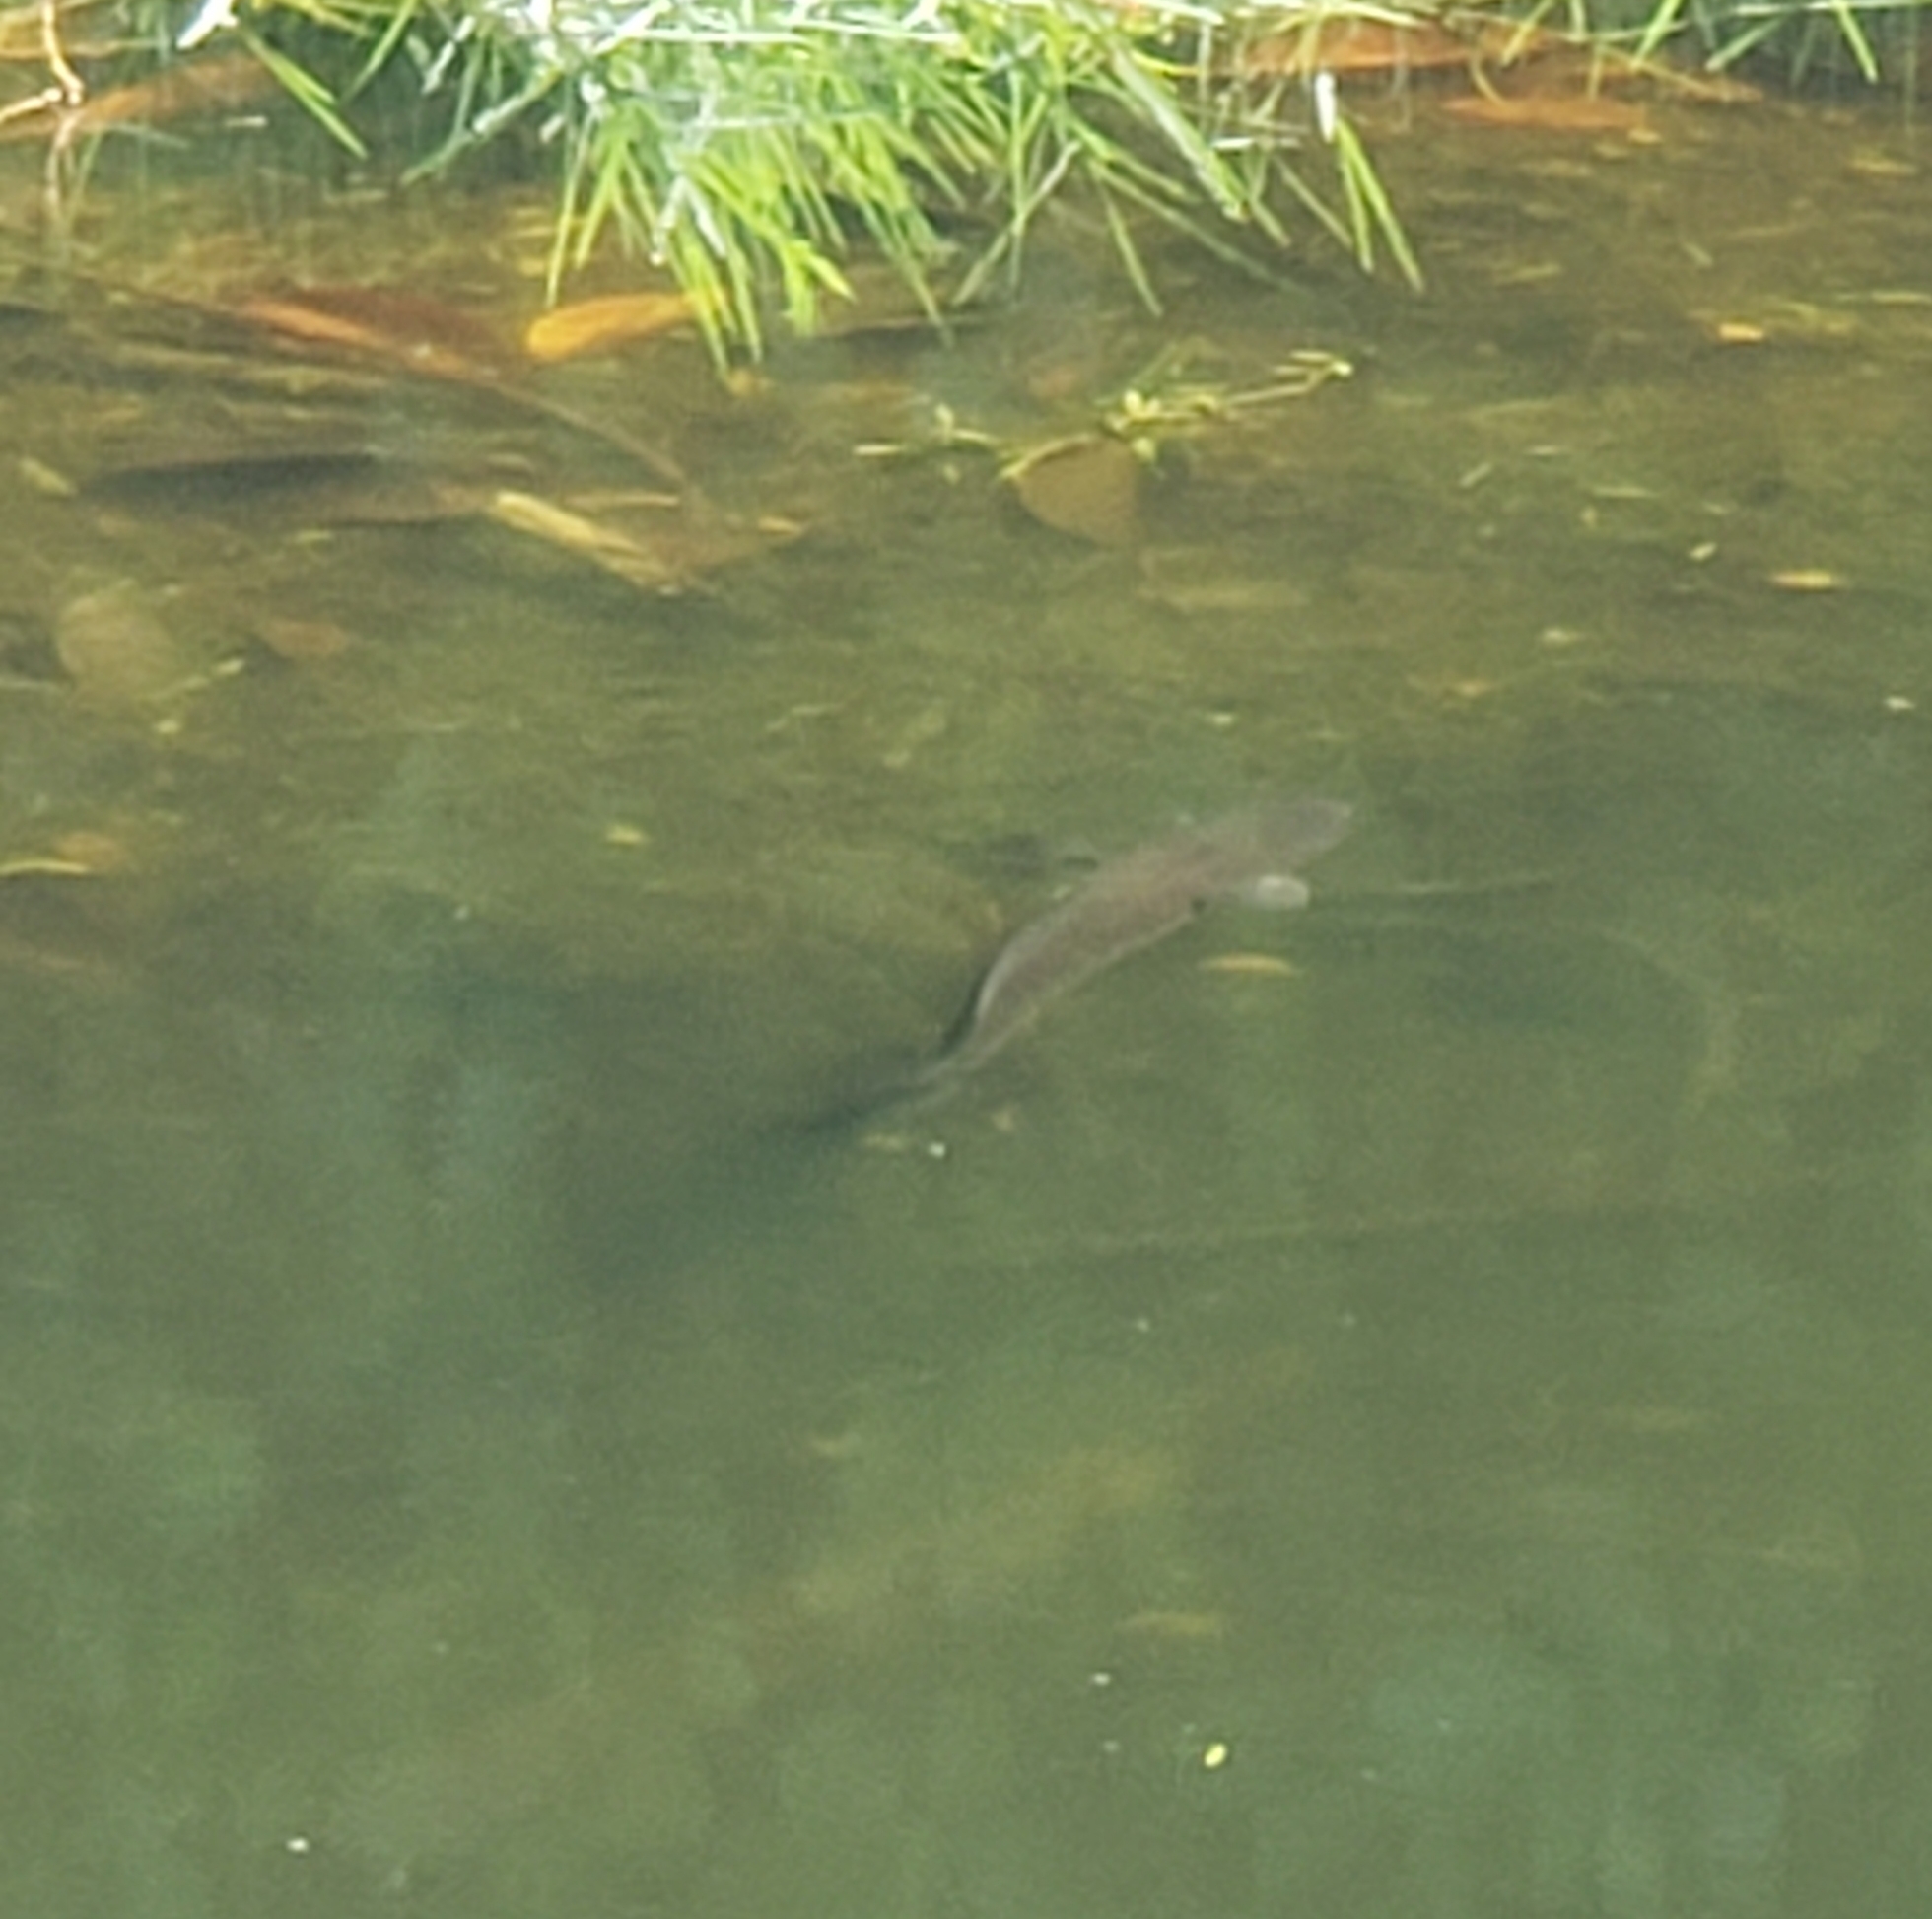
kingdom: Animalia
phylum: Chordata
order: Perciformes
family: Channidae
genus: Channa
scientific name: Channa marulius
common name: Giant snakehead
